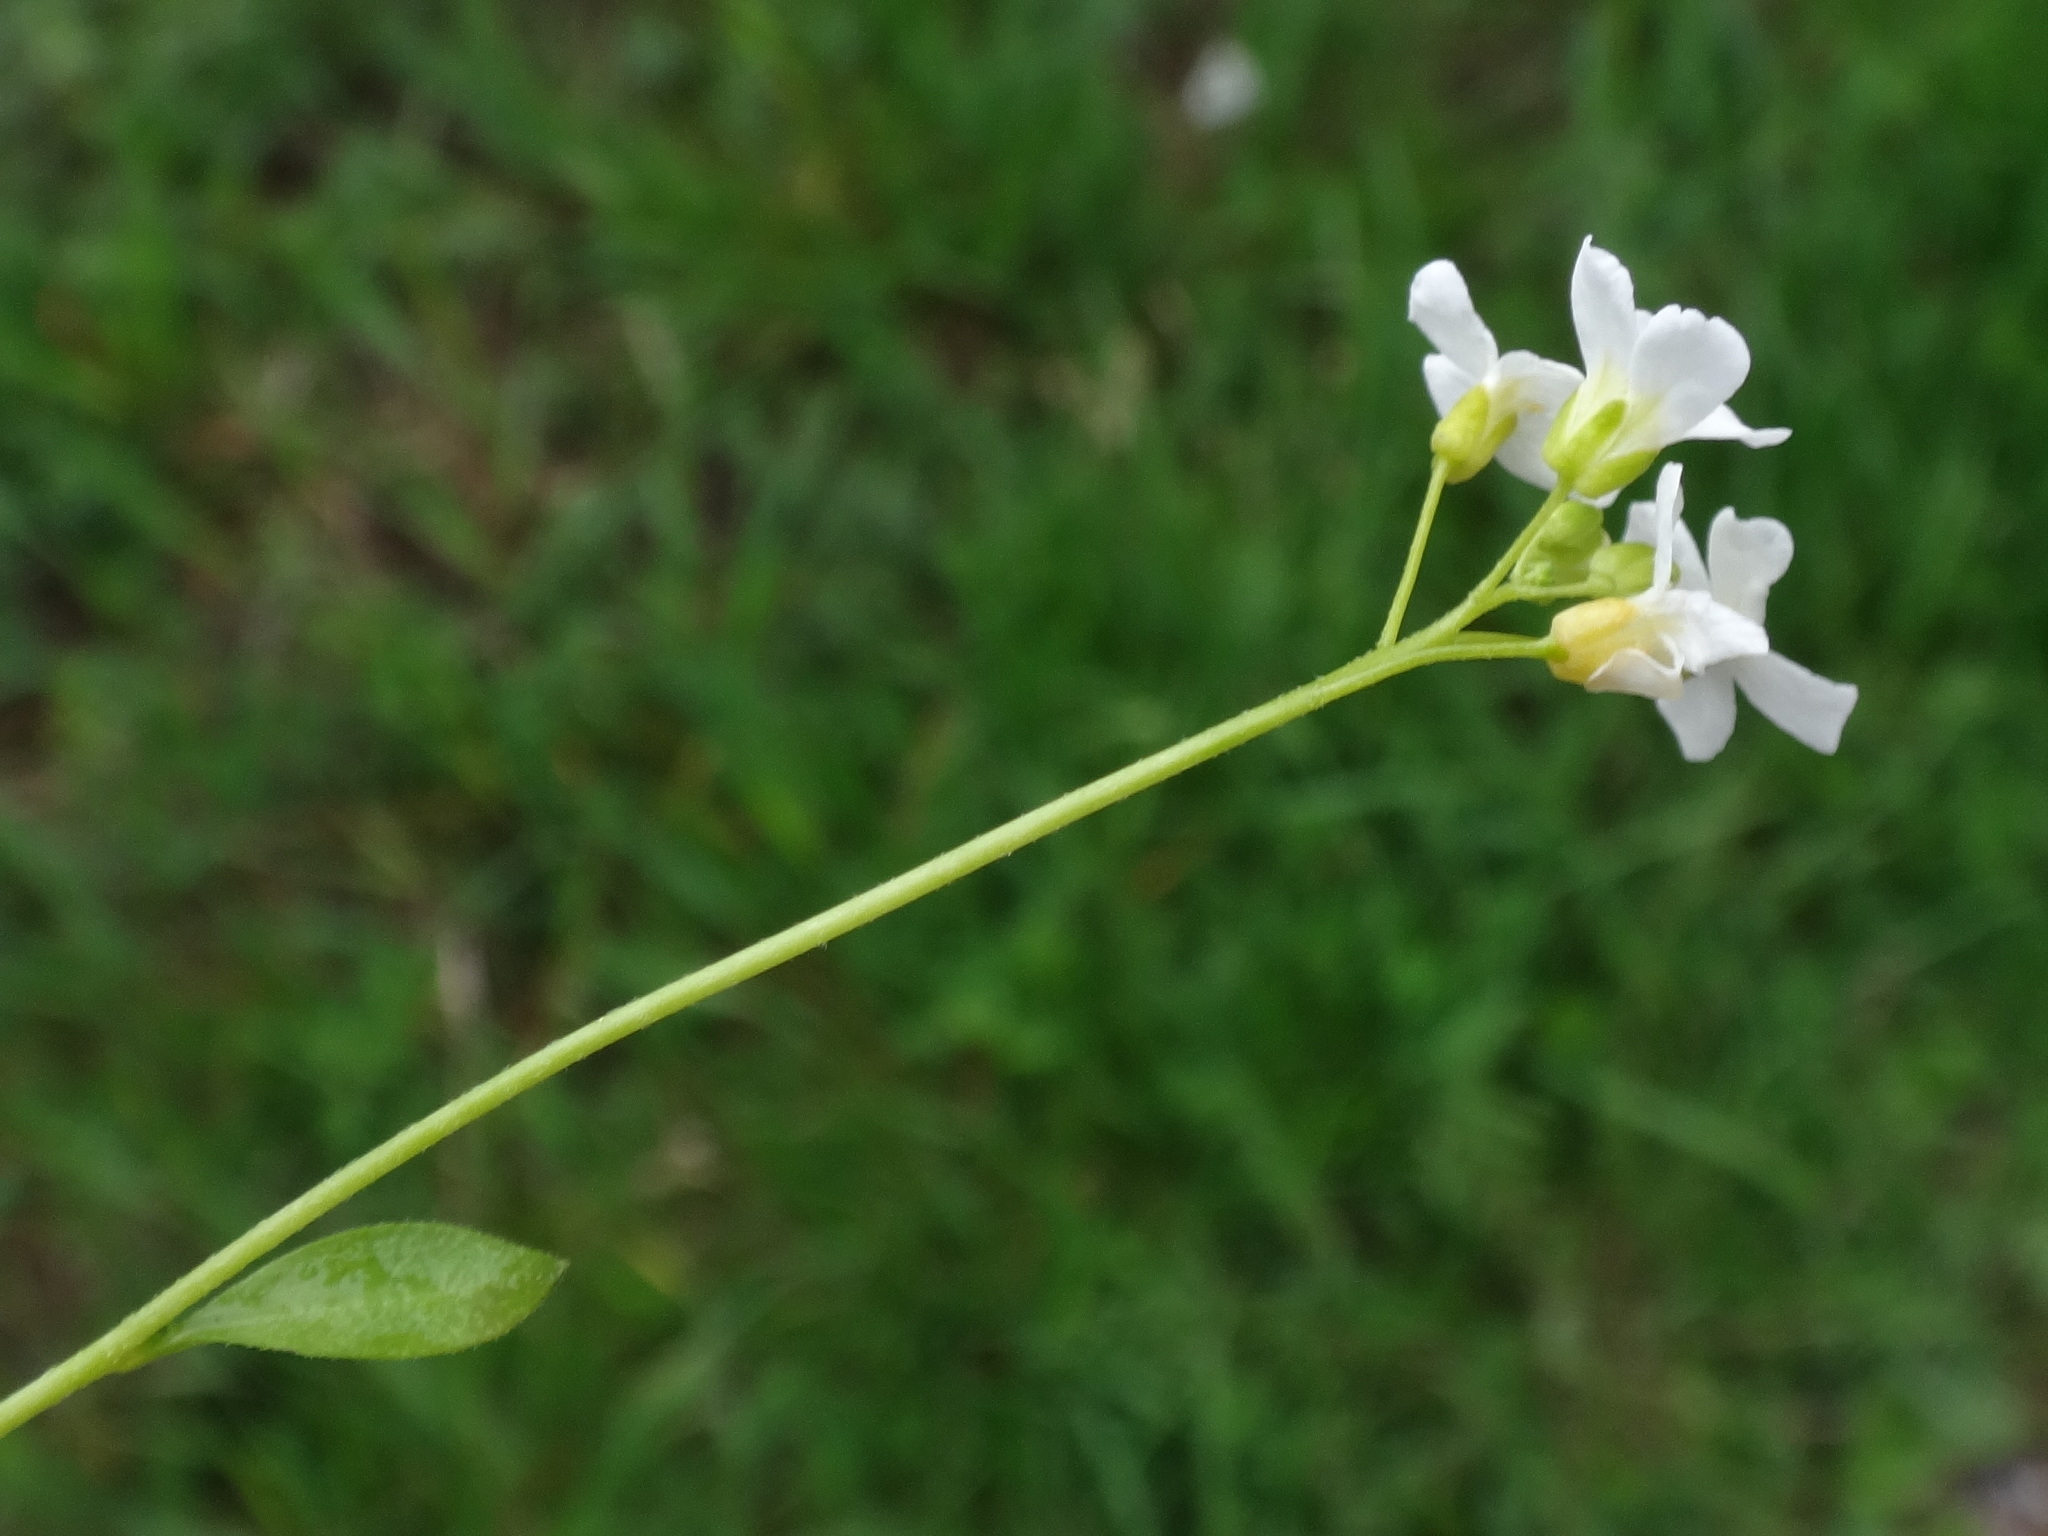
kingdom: Plantae
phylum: Tracheophyta
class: Magnoliopsida
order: Brassicales
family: Brassicaceae
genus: Arabidopsis
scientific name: Arabidopsis halleri
